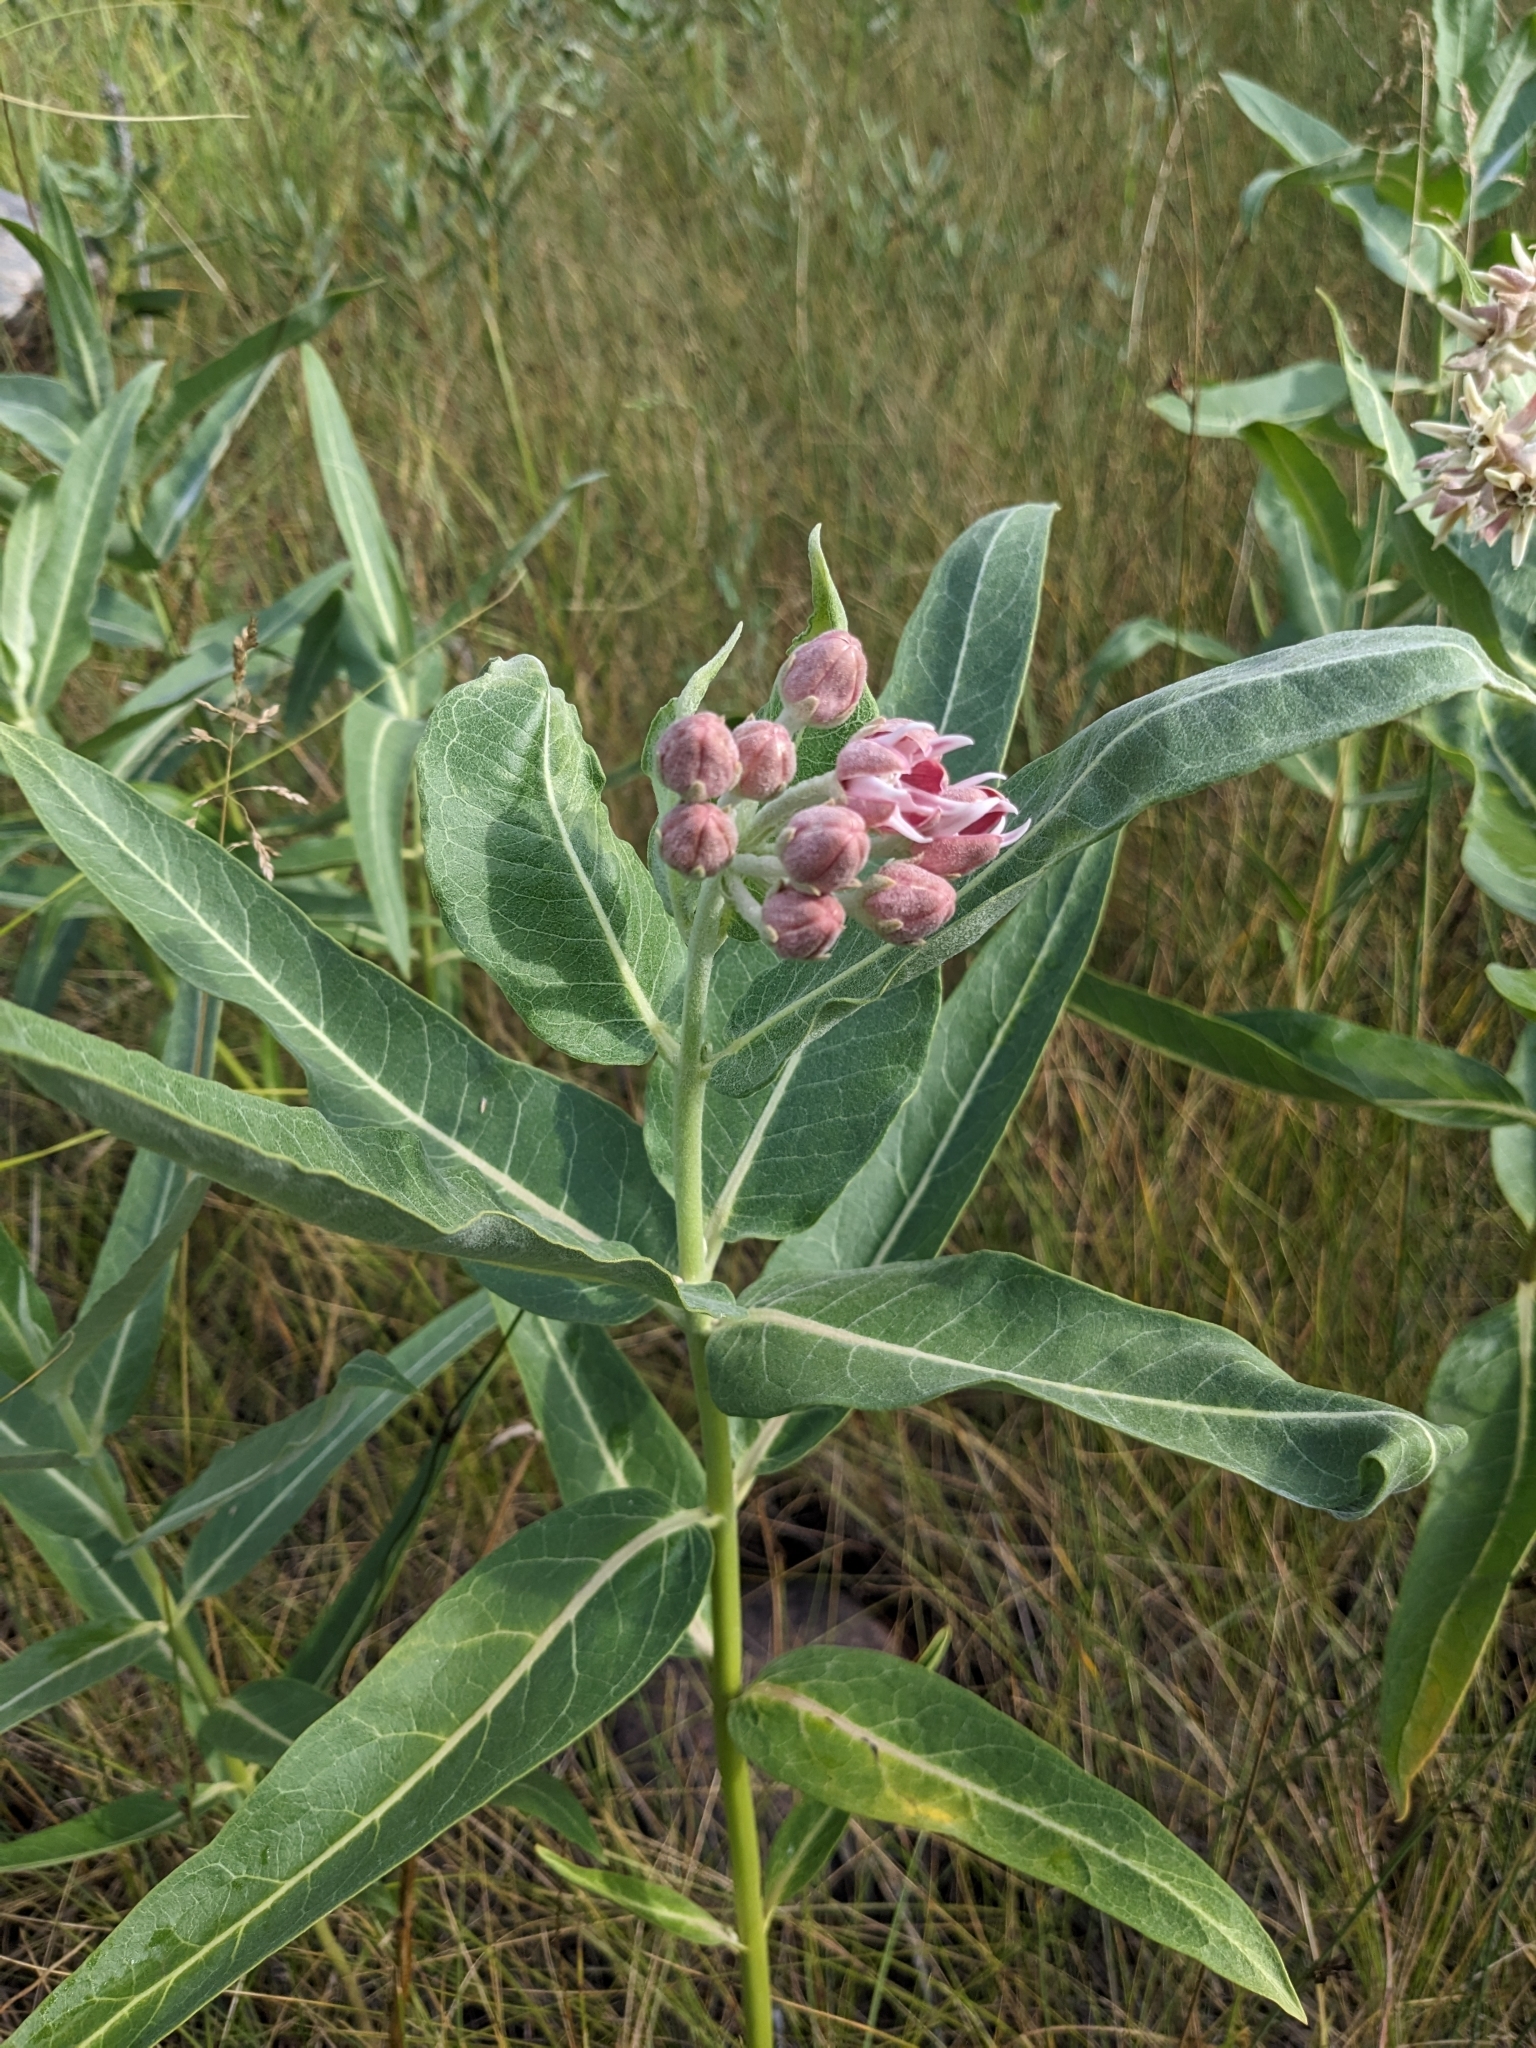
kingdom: Plantae
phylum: Tracheophyta
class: Magnoliopsida
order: Gentianales
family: Apocynaceae
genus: Asclepias
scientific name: Asclepias speciosa
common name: Showy milkweed
